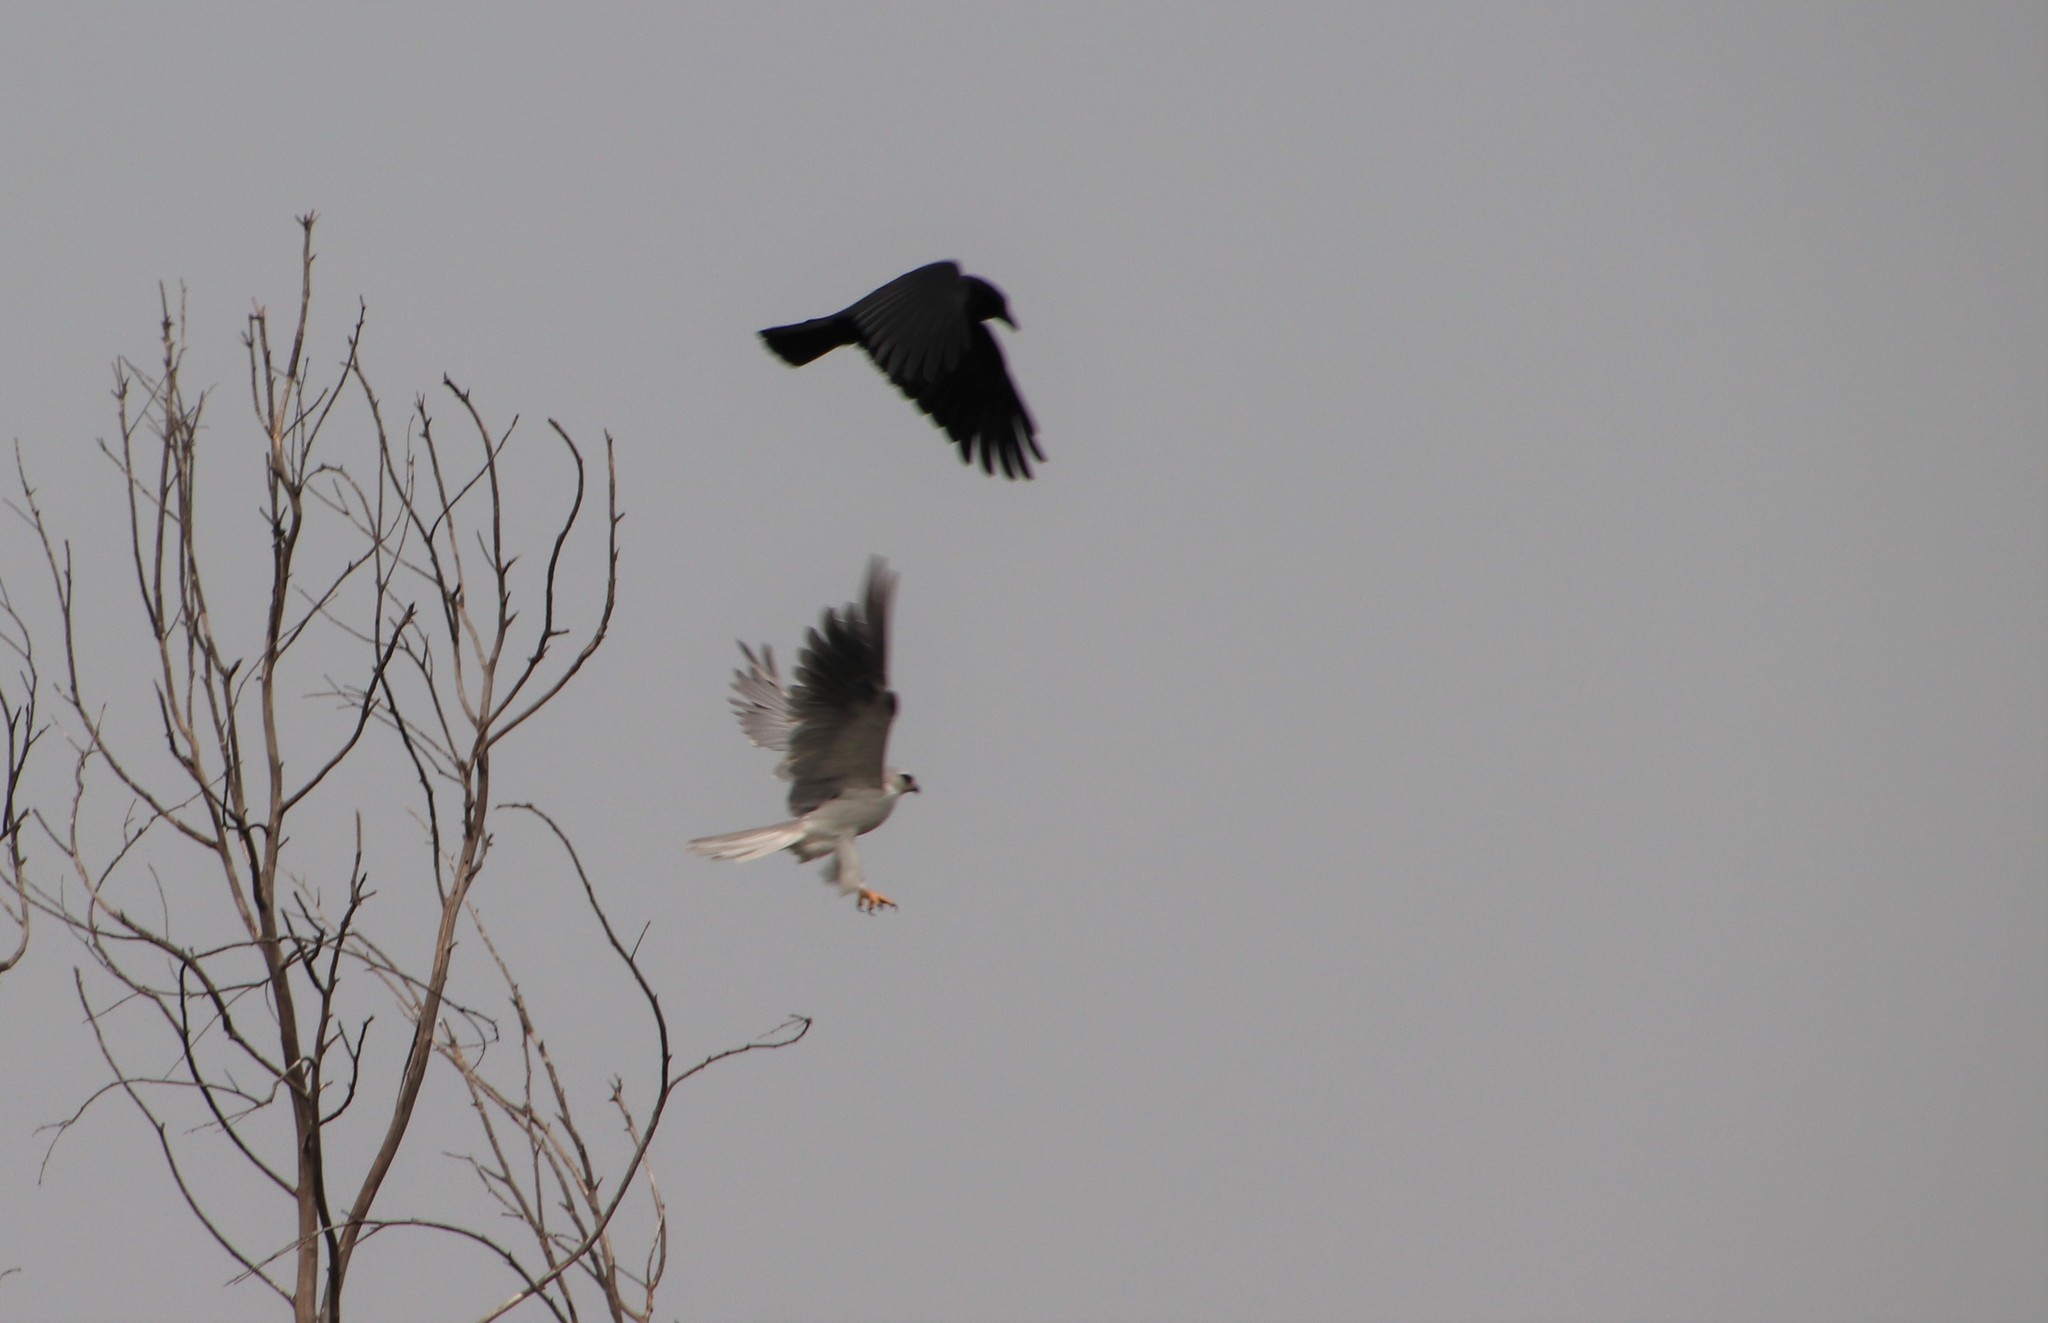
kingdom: Animalia
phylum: Chordata
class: Aves
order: Passeriformes
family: Corvidae
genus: Corvus
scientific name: Corvus brachyrhynchos
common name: American crow
